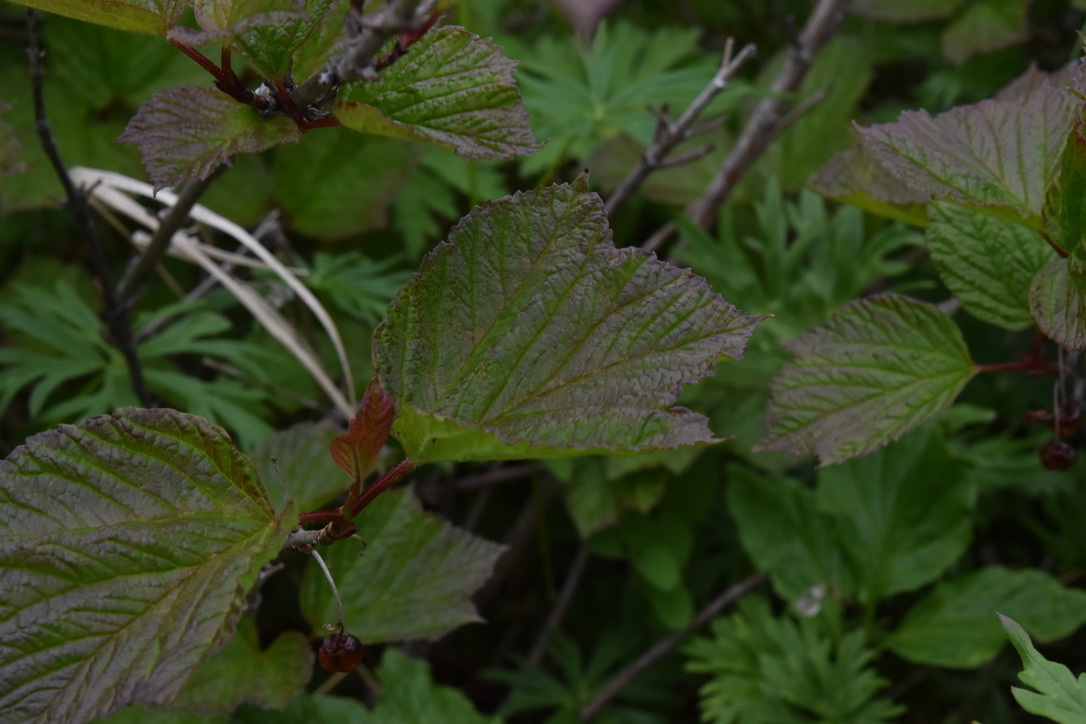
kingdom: Plantae
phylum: Tracheophyta
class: Magnoliopsida
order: Dipsacales
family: Viburnaceae
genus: Viburnum
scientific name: Viburnum edule
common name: Mooseberry
